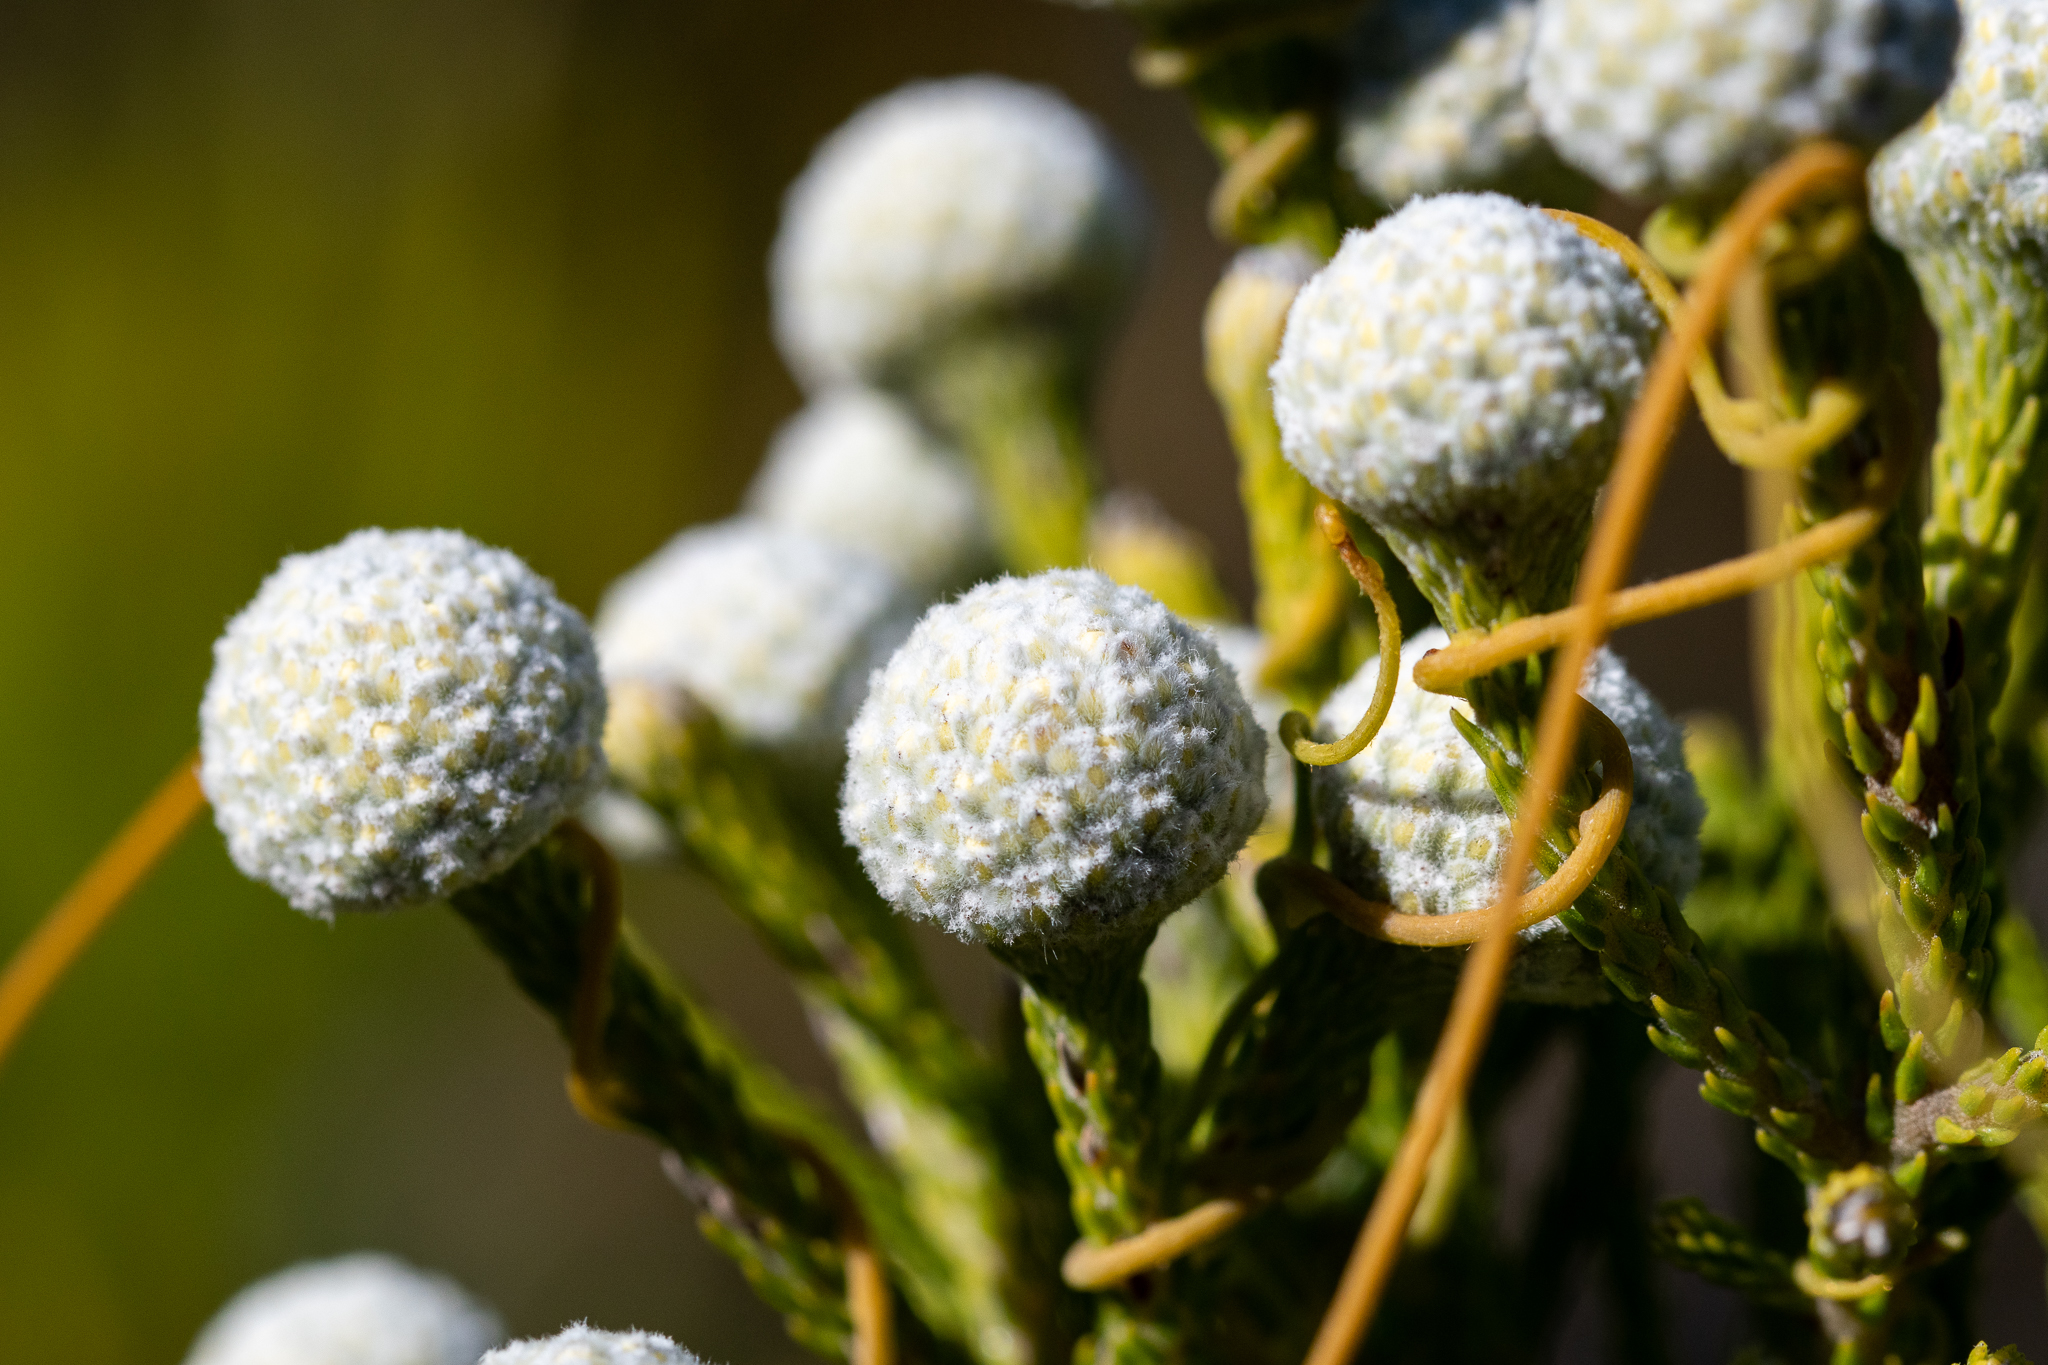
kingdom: Plantae
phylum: Tracheophyta
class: Magnoliopsida
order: Bruniales
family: Bruniaceae
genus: Brunia
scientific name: Brunia noduliflora
